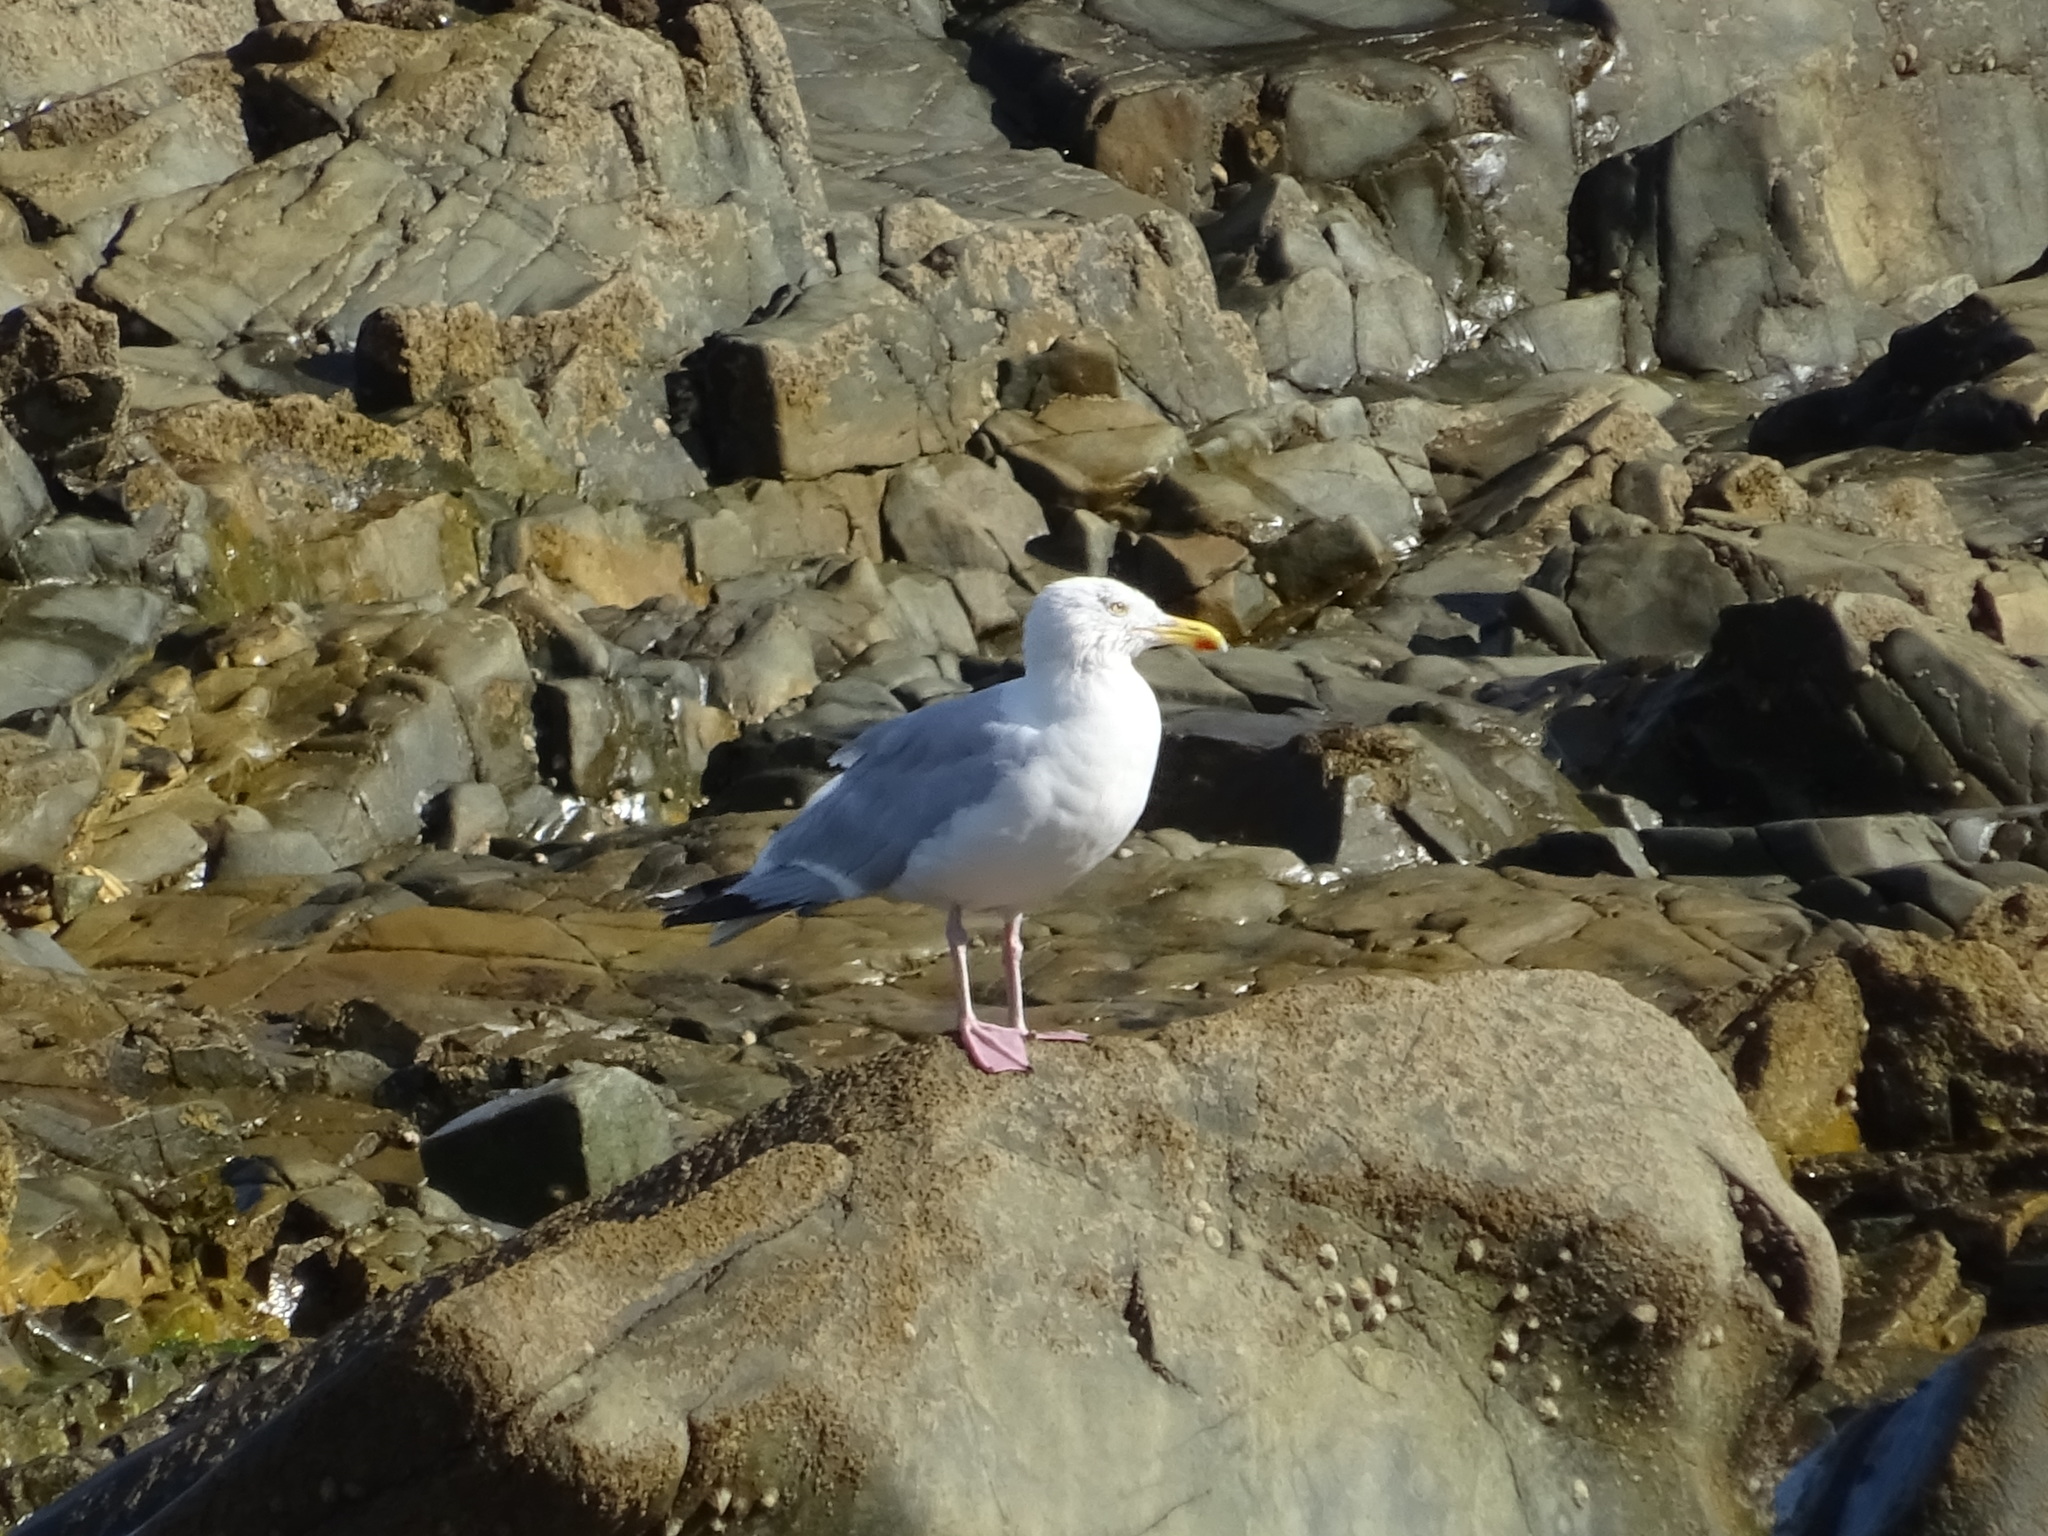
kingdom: Animalia
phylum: Chordata
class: Aves
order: Charadriiformes
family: Laridae
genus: Larus
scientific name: Larus argentatus
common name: Herring gull
